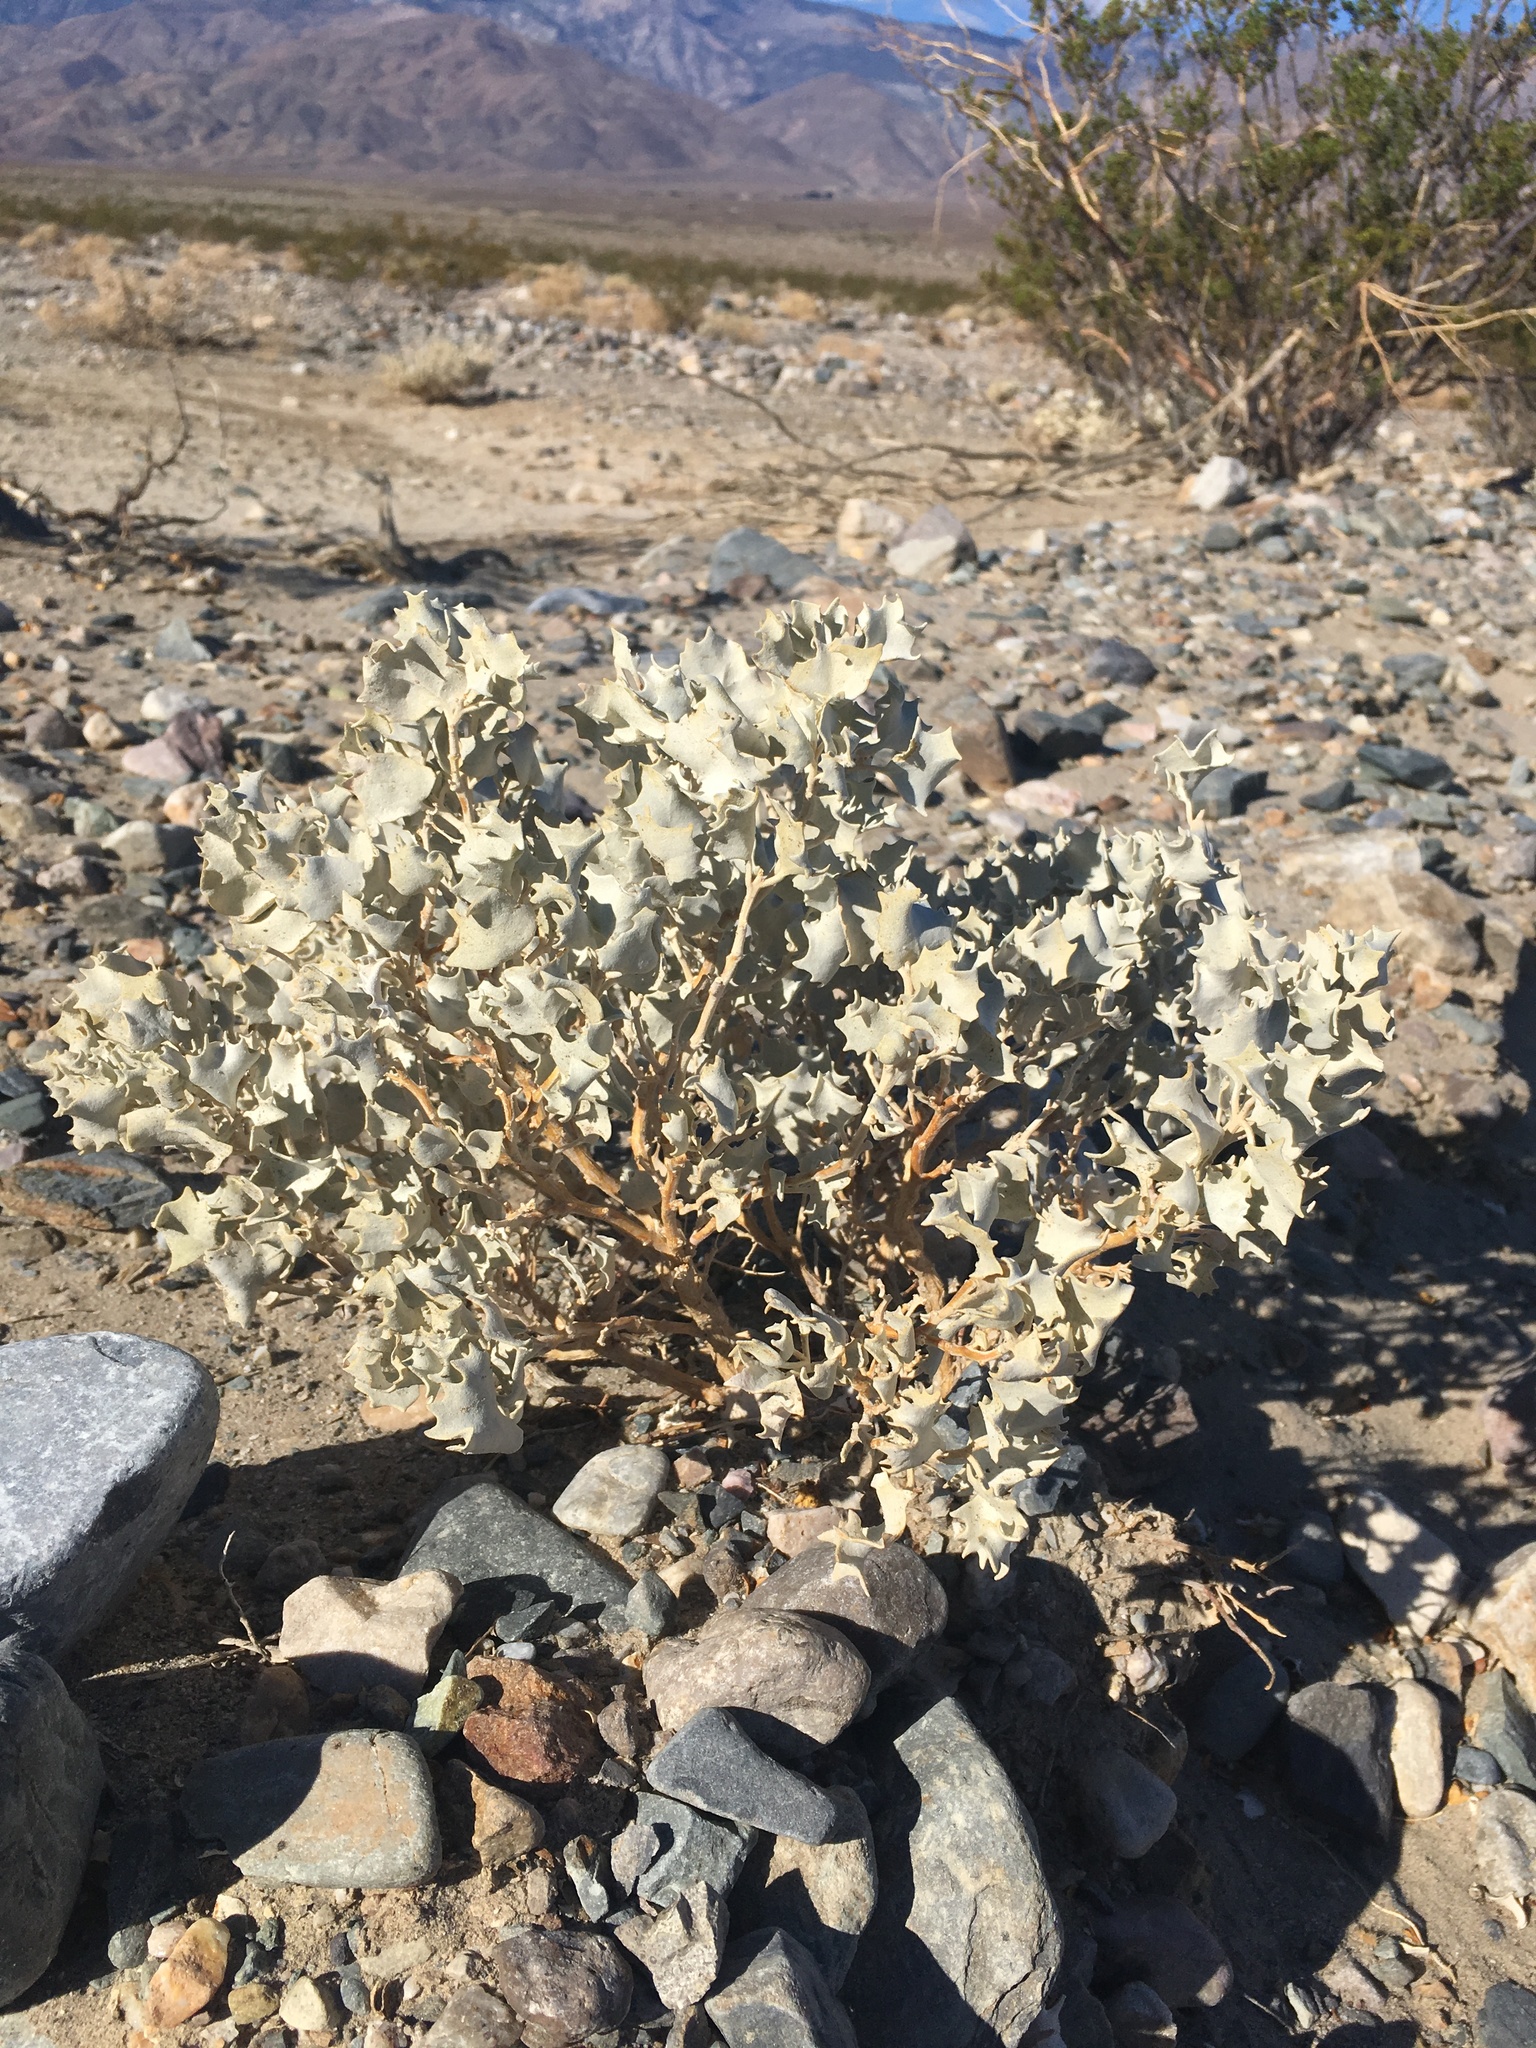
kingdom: Plantae
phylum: Tracheophyta
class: Magnoliopsida
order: Caryophyllales
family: Amaranthaceae
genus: Atriplex
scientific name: Atriplex hymenelytra
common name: Desert-holly
